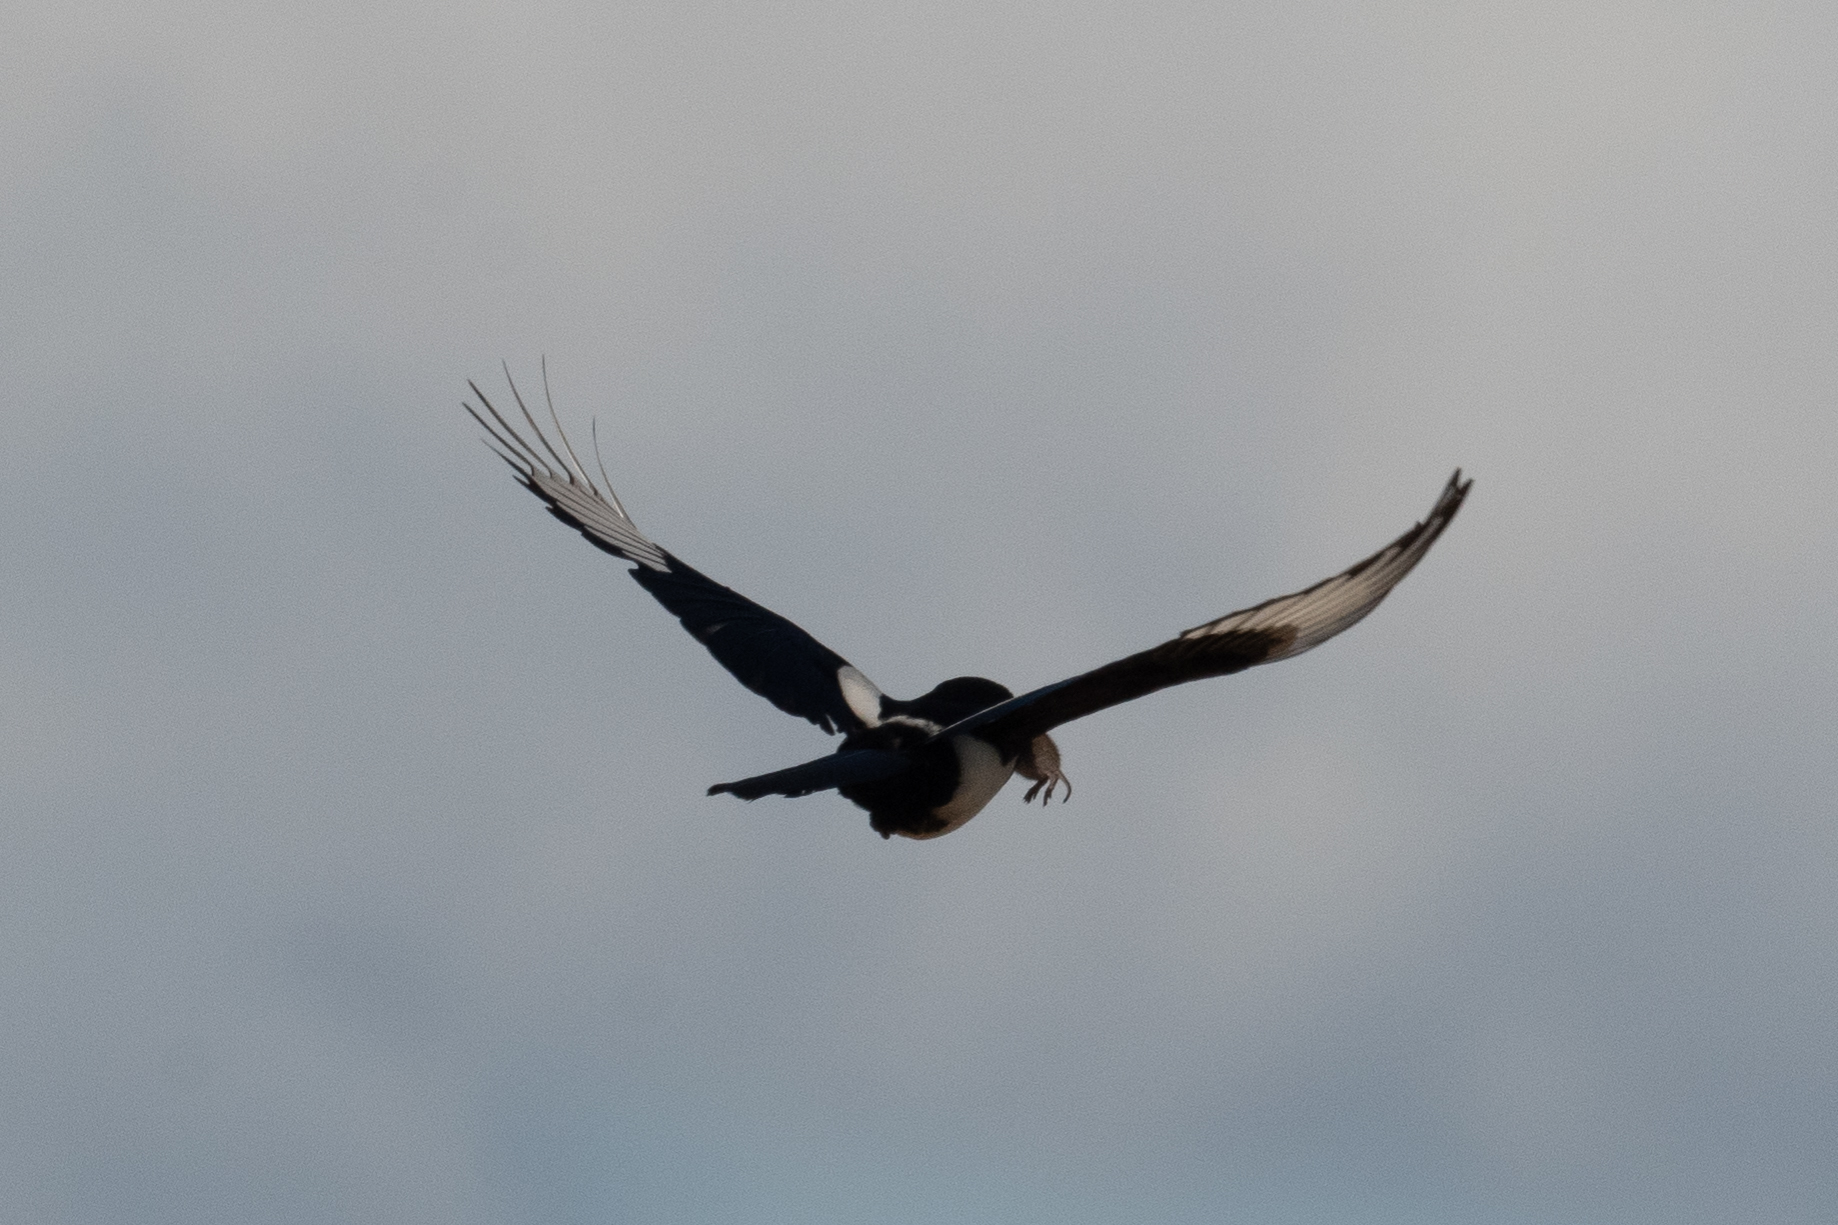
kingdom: Animalia
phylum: Chordata
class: Aves
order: Passeriformes
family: Corvidae
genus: Pica
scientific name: Pica nuttalli
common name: Yellow-billed magpie
